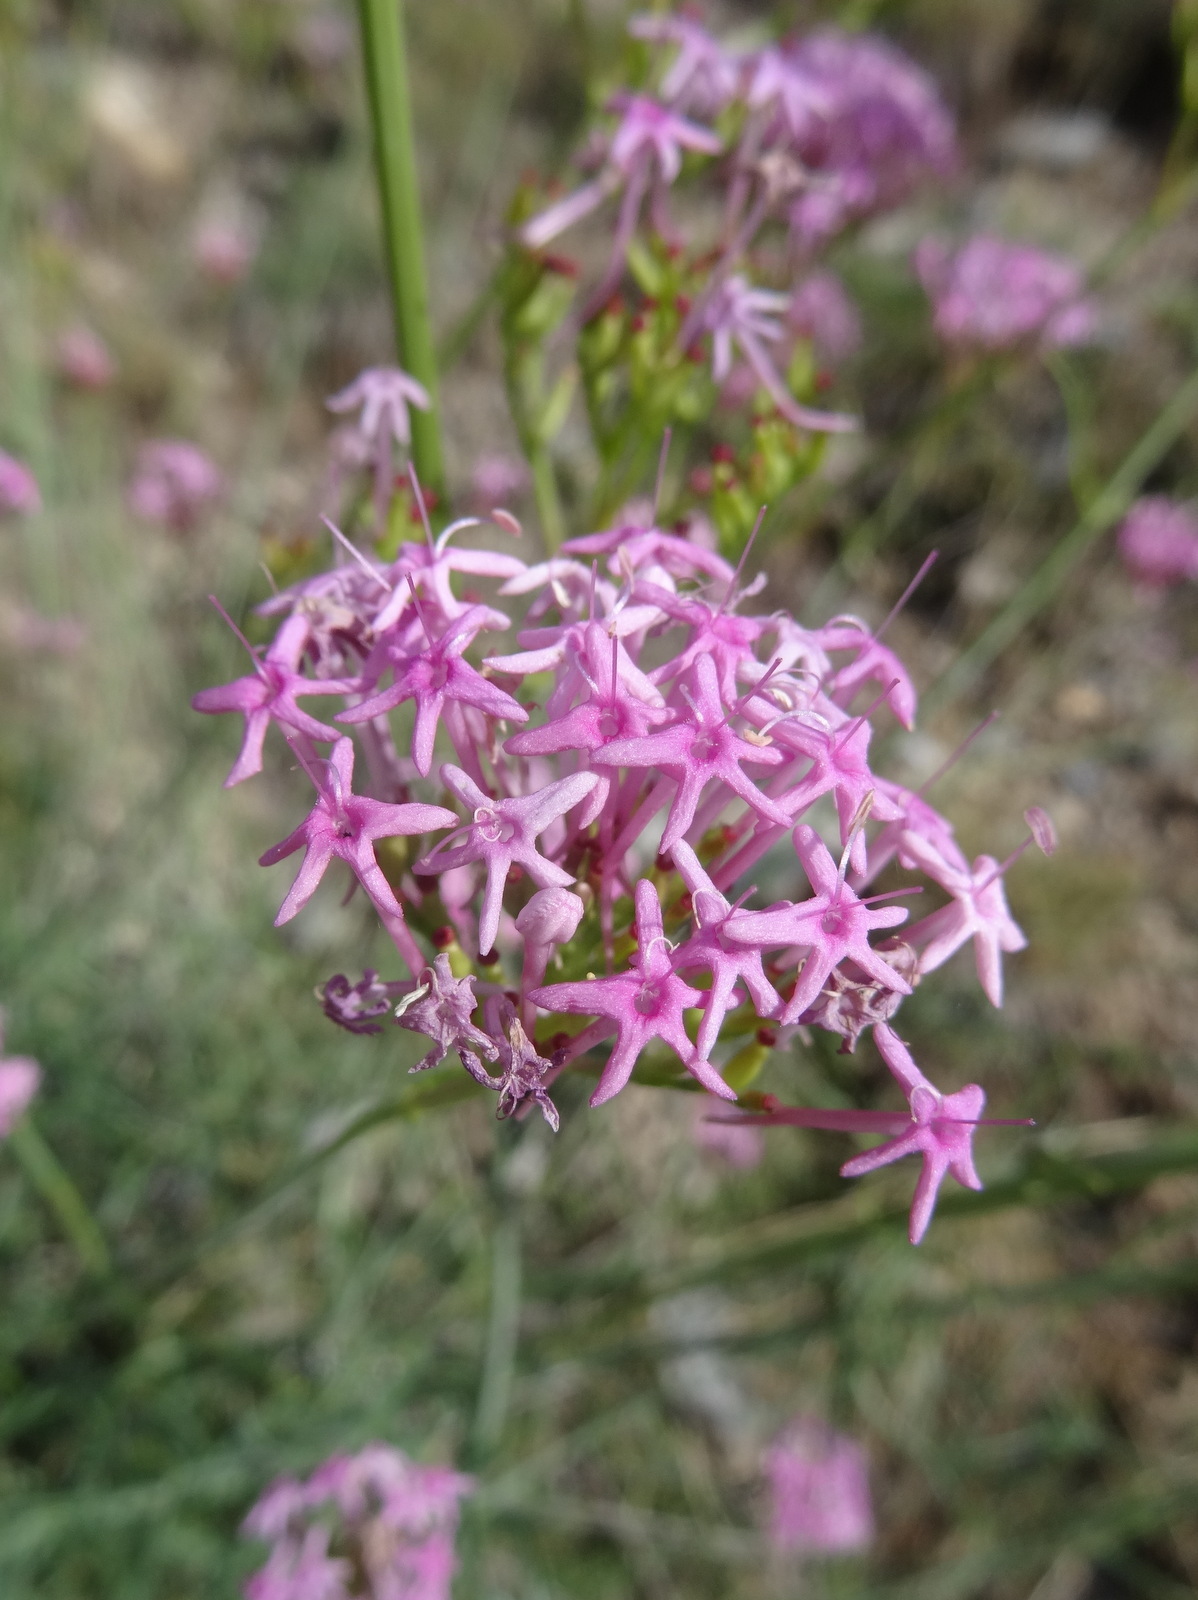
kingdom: Plantae
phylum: Tracheophyta
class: Magnoliopsida
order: Dipsacales
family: Caprifoliaceae
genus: Centranthus
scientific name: Centranthus angustifolius
